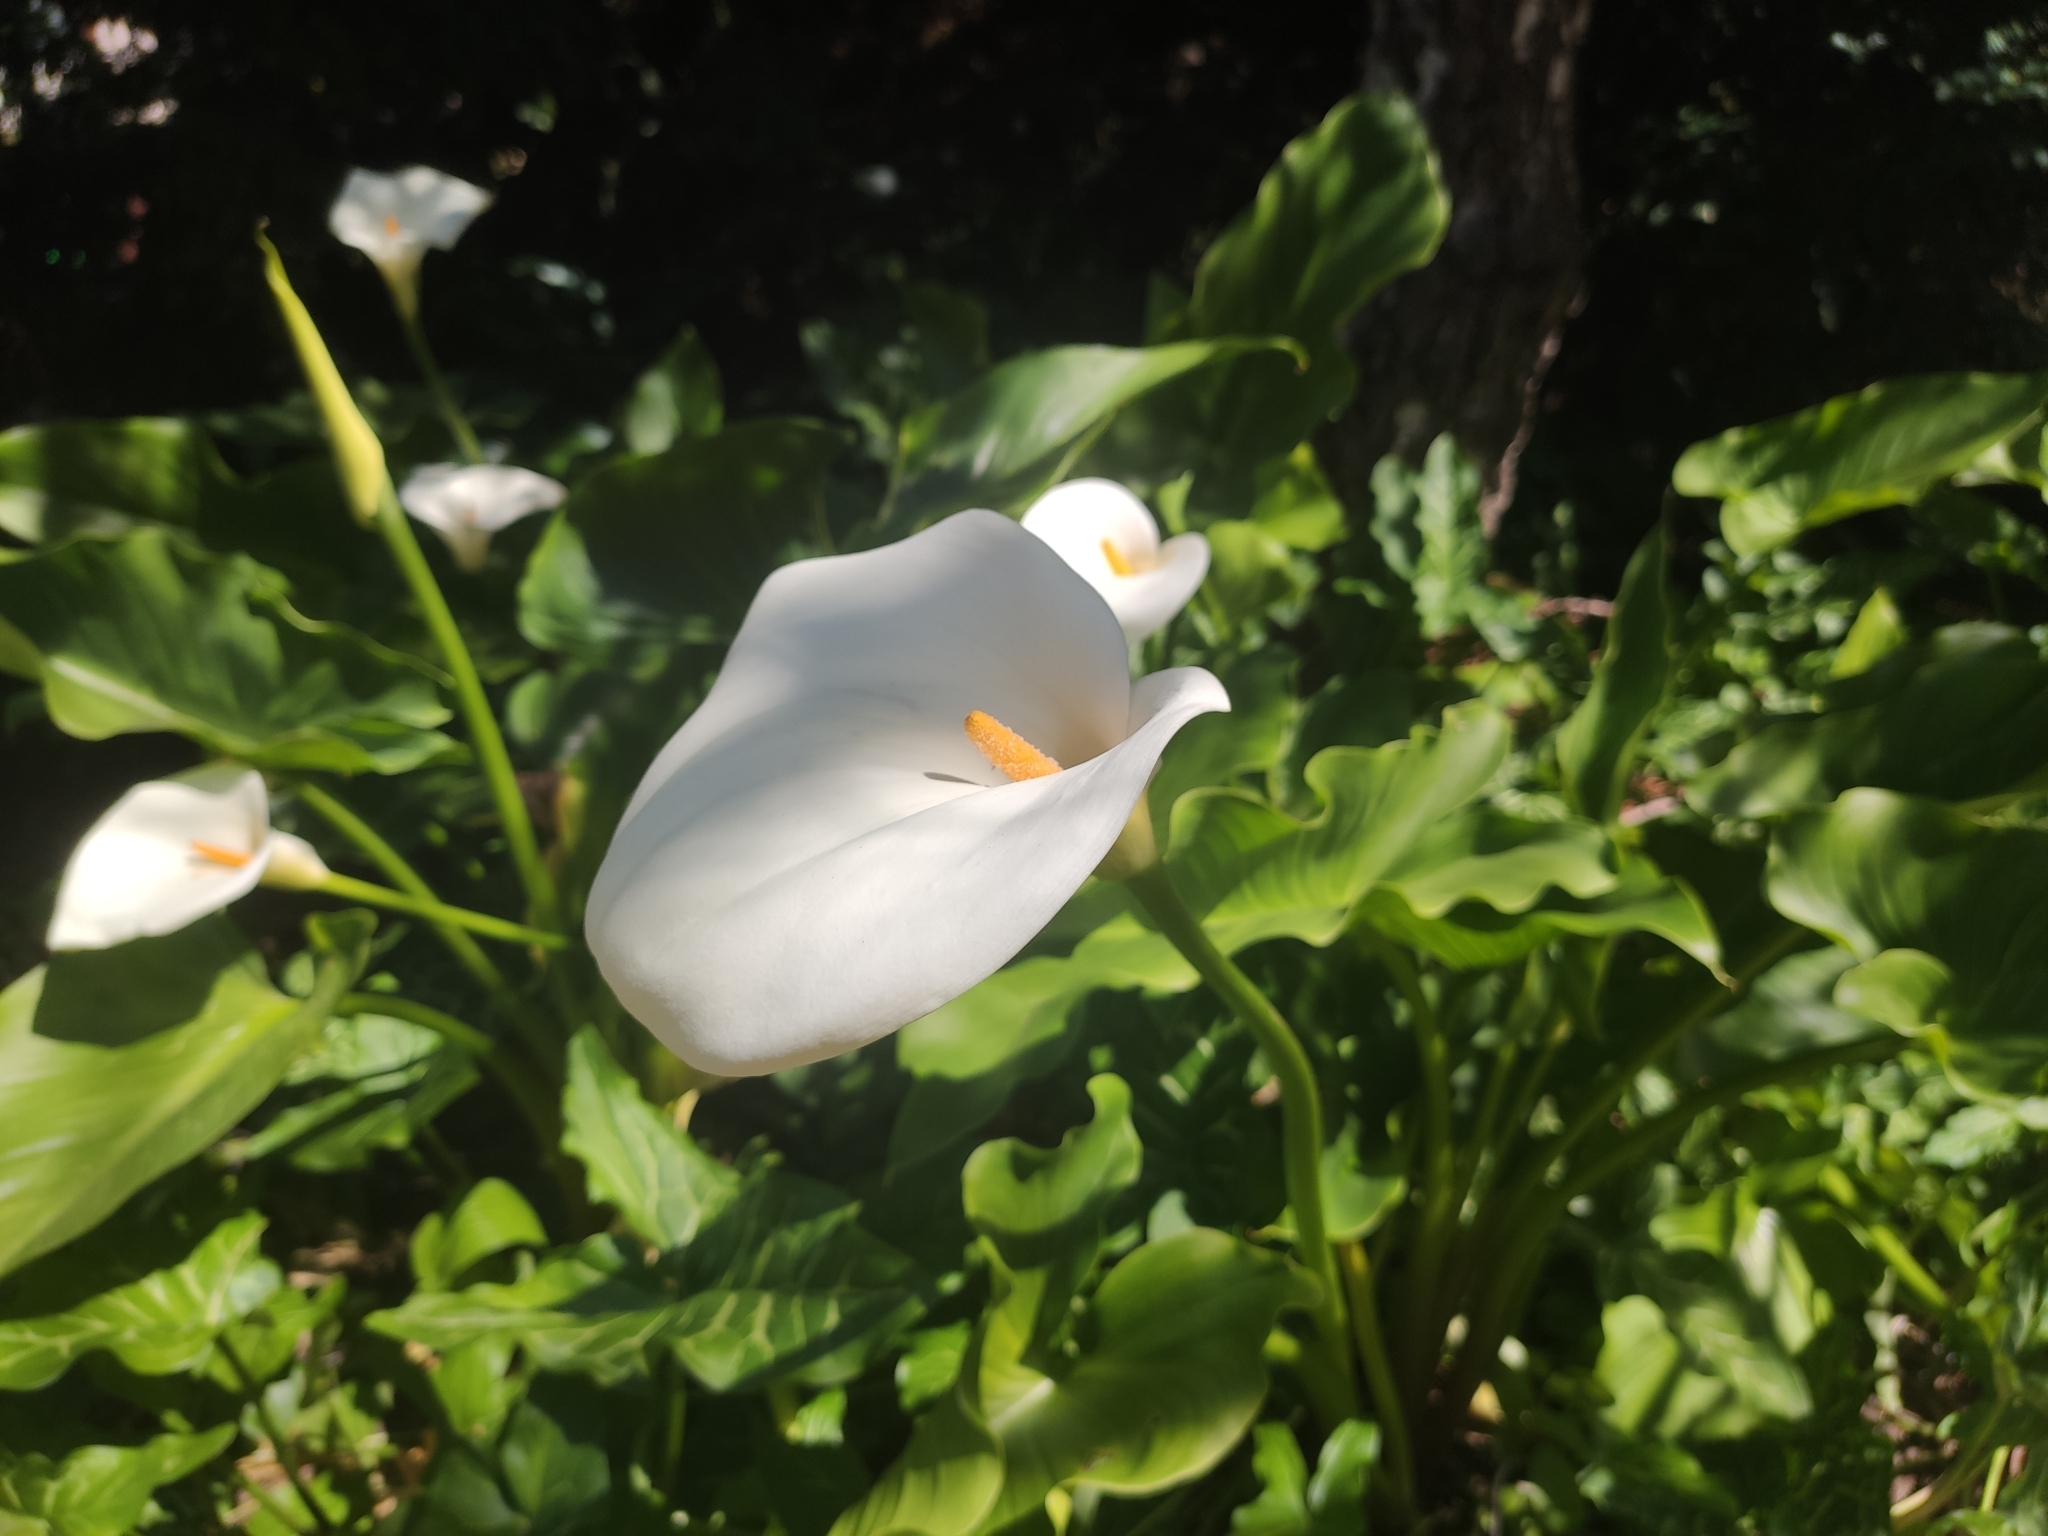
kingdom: Plantae
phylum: Tracheophyta
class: Liliopsida
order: Alismatales
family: Araceae
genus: Zantedeschia
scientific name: Zantedeschia aethiopica
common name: Altar-lily
